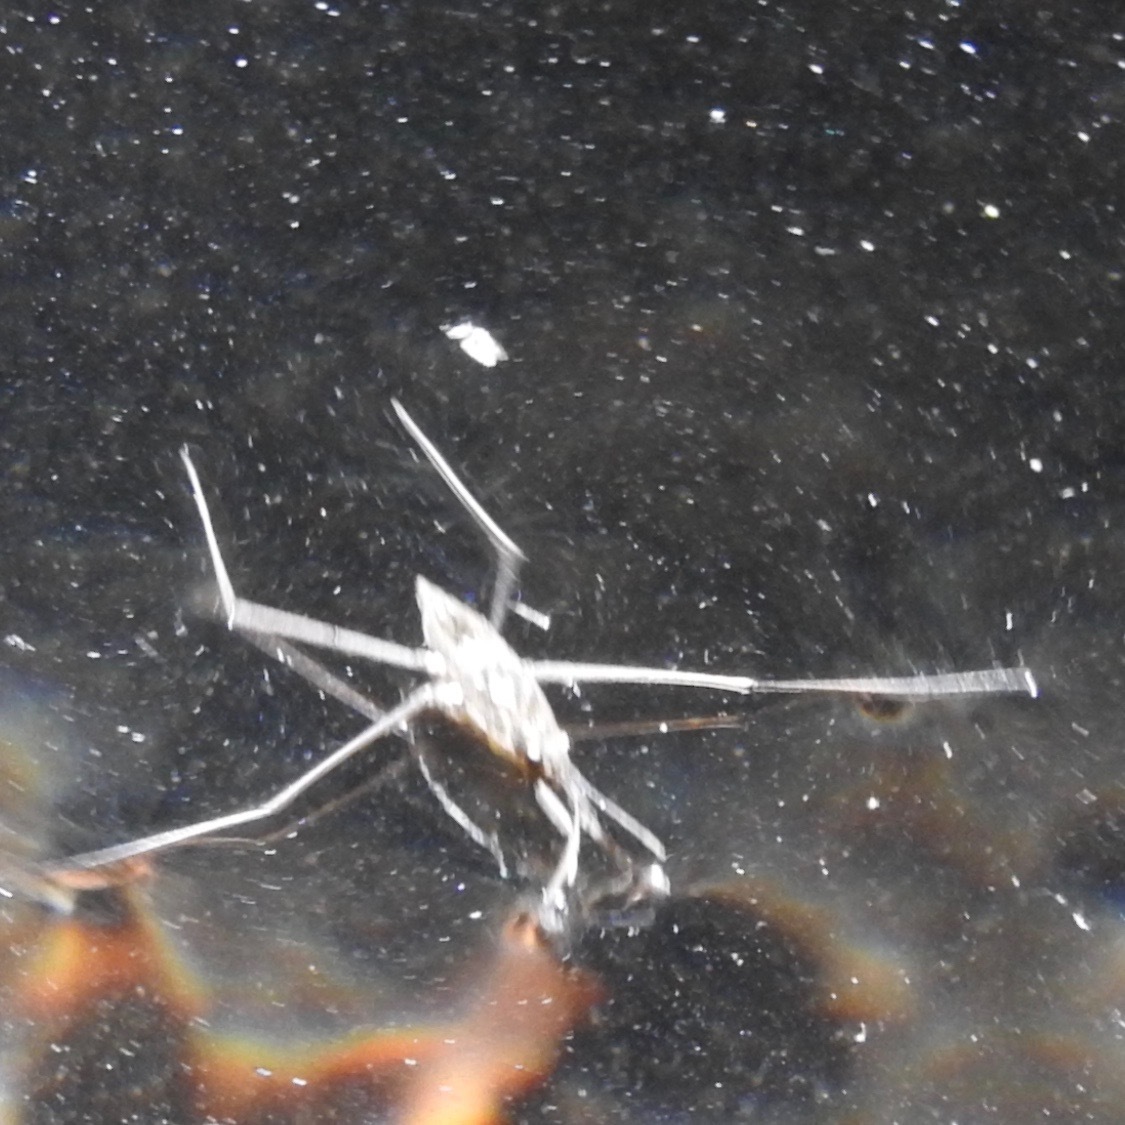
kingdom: Animalia
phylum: Arthropoda
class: Insecta
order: Hemiptera
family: Gerridae
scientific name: Gerridae
